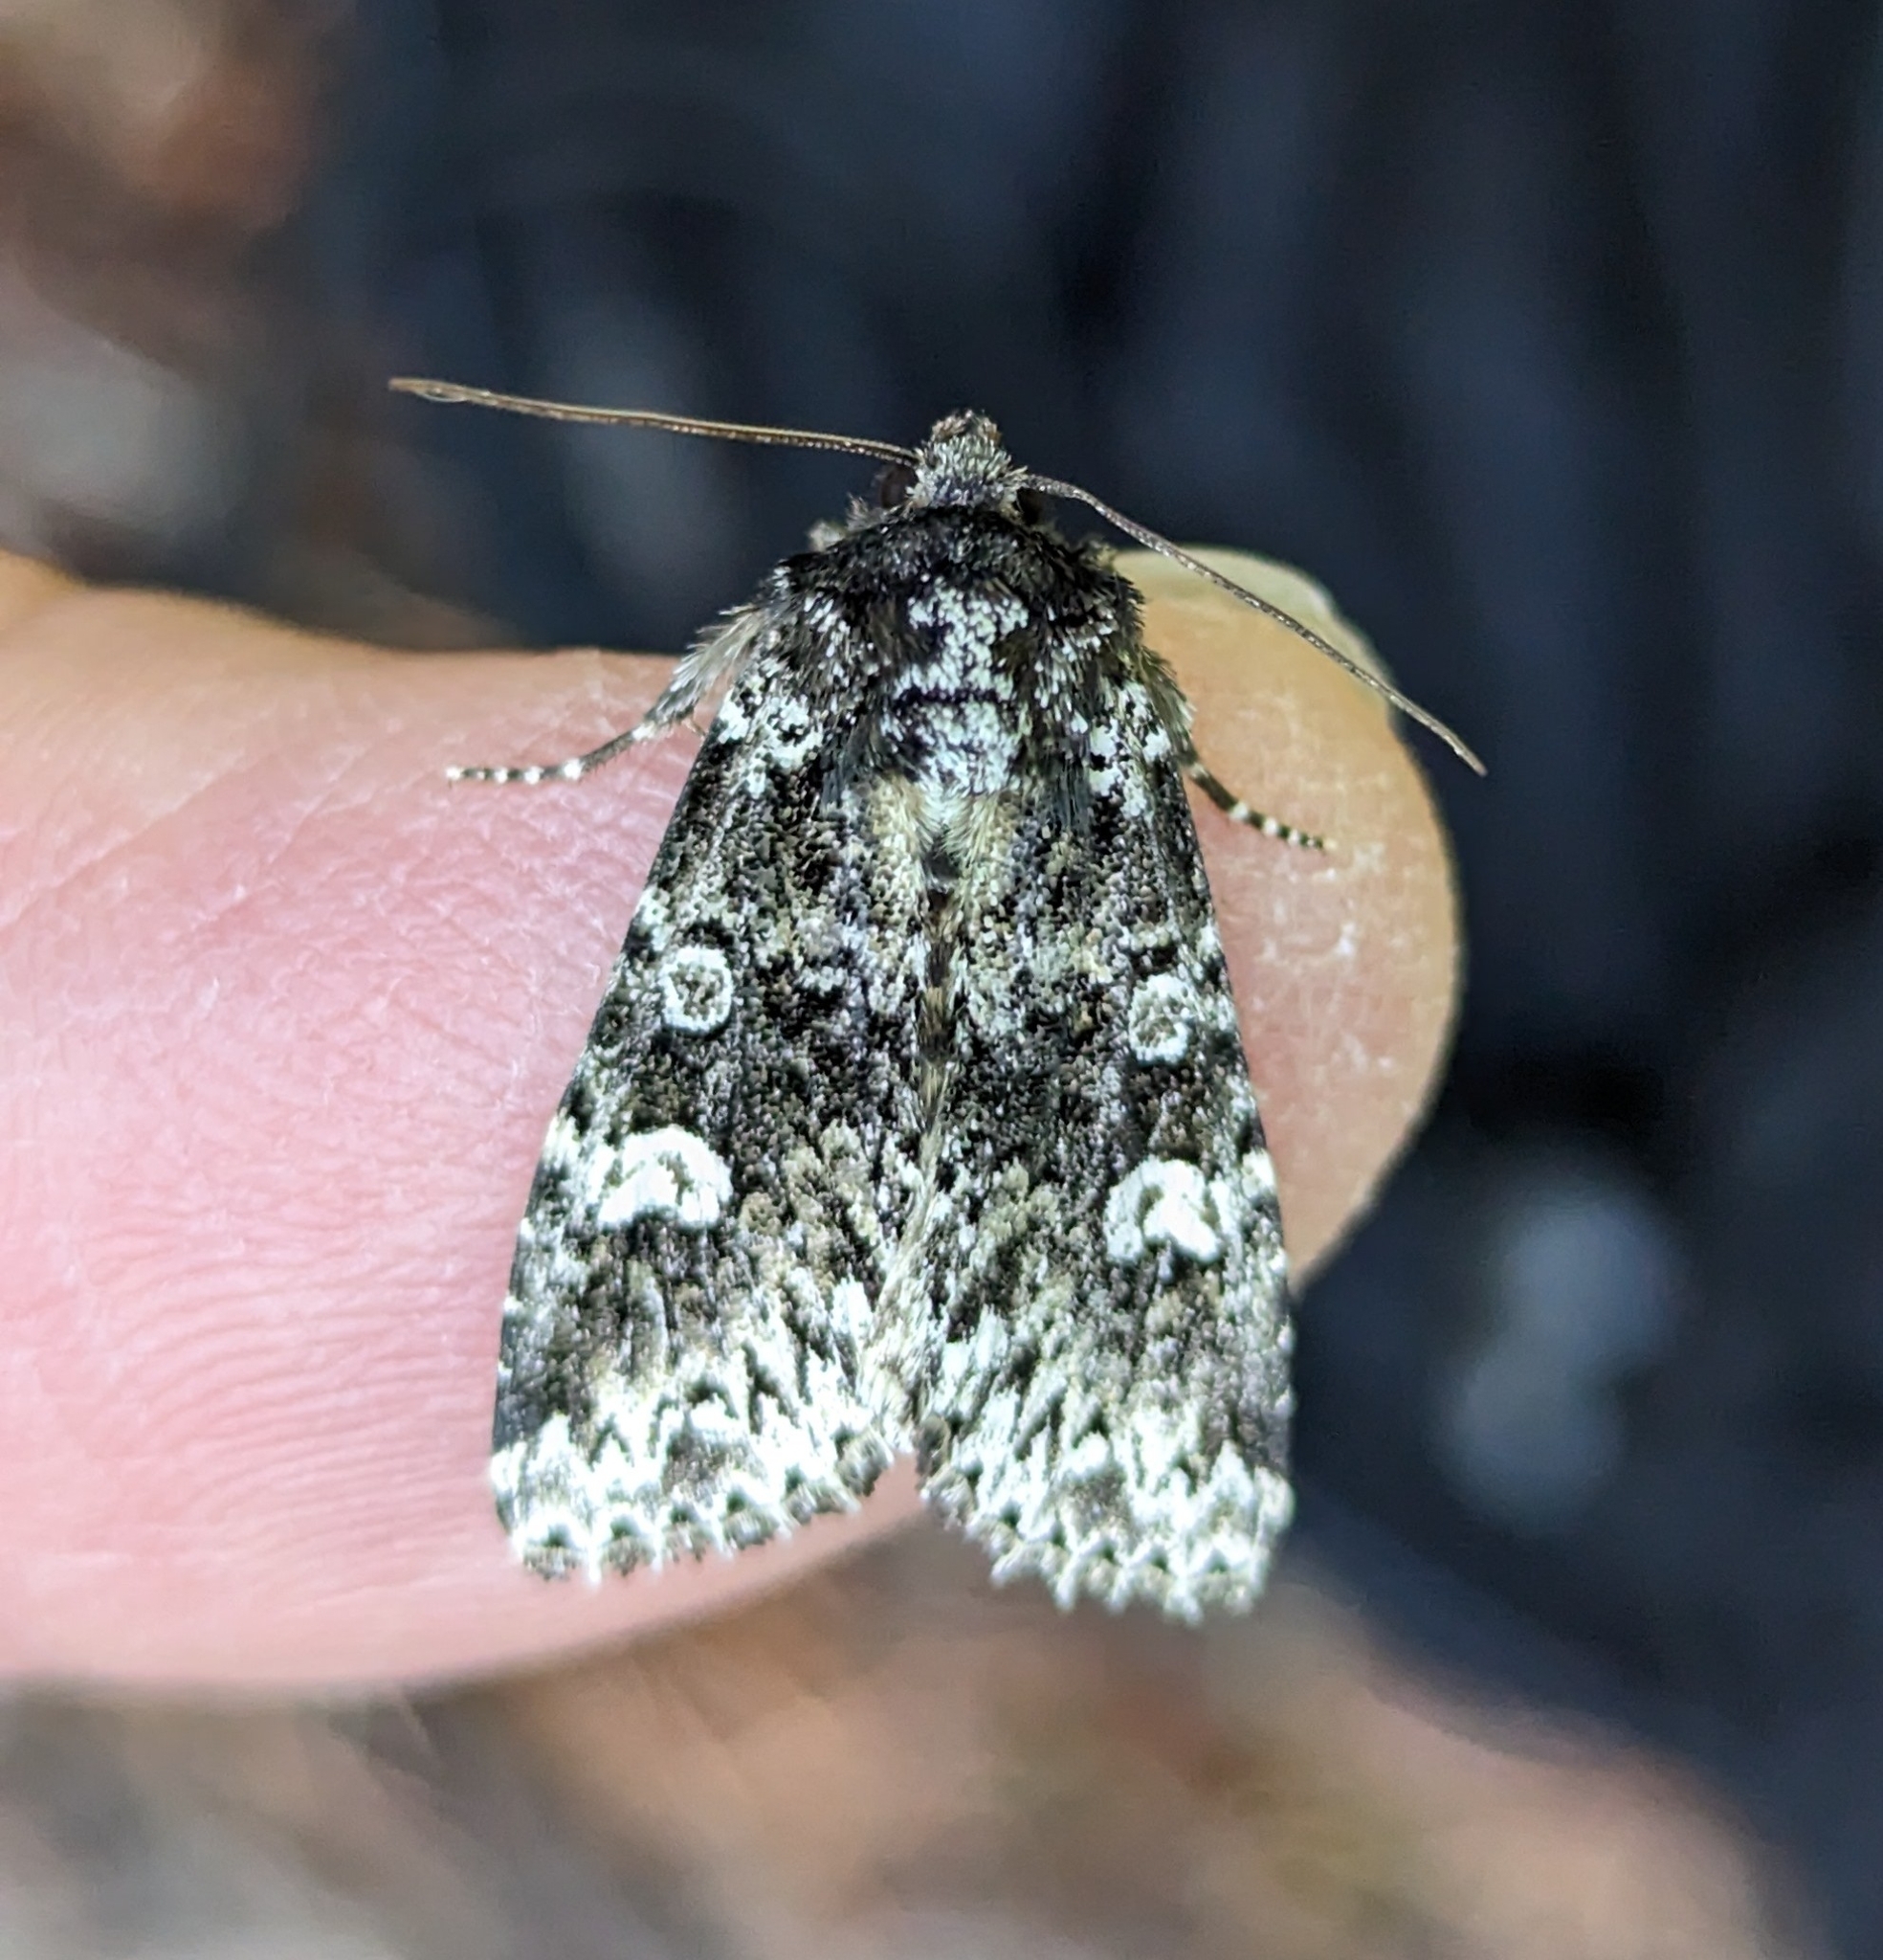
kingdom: Animalia
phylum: Arthropoda
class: Insecta
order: Lepidoptera
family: Noctuidae
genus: Melanchra
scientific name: Melanchra adjuncta
